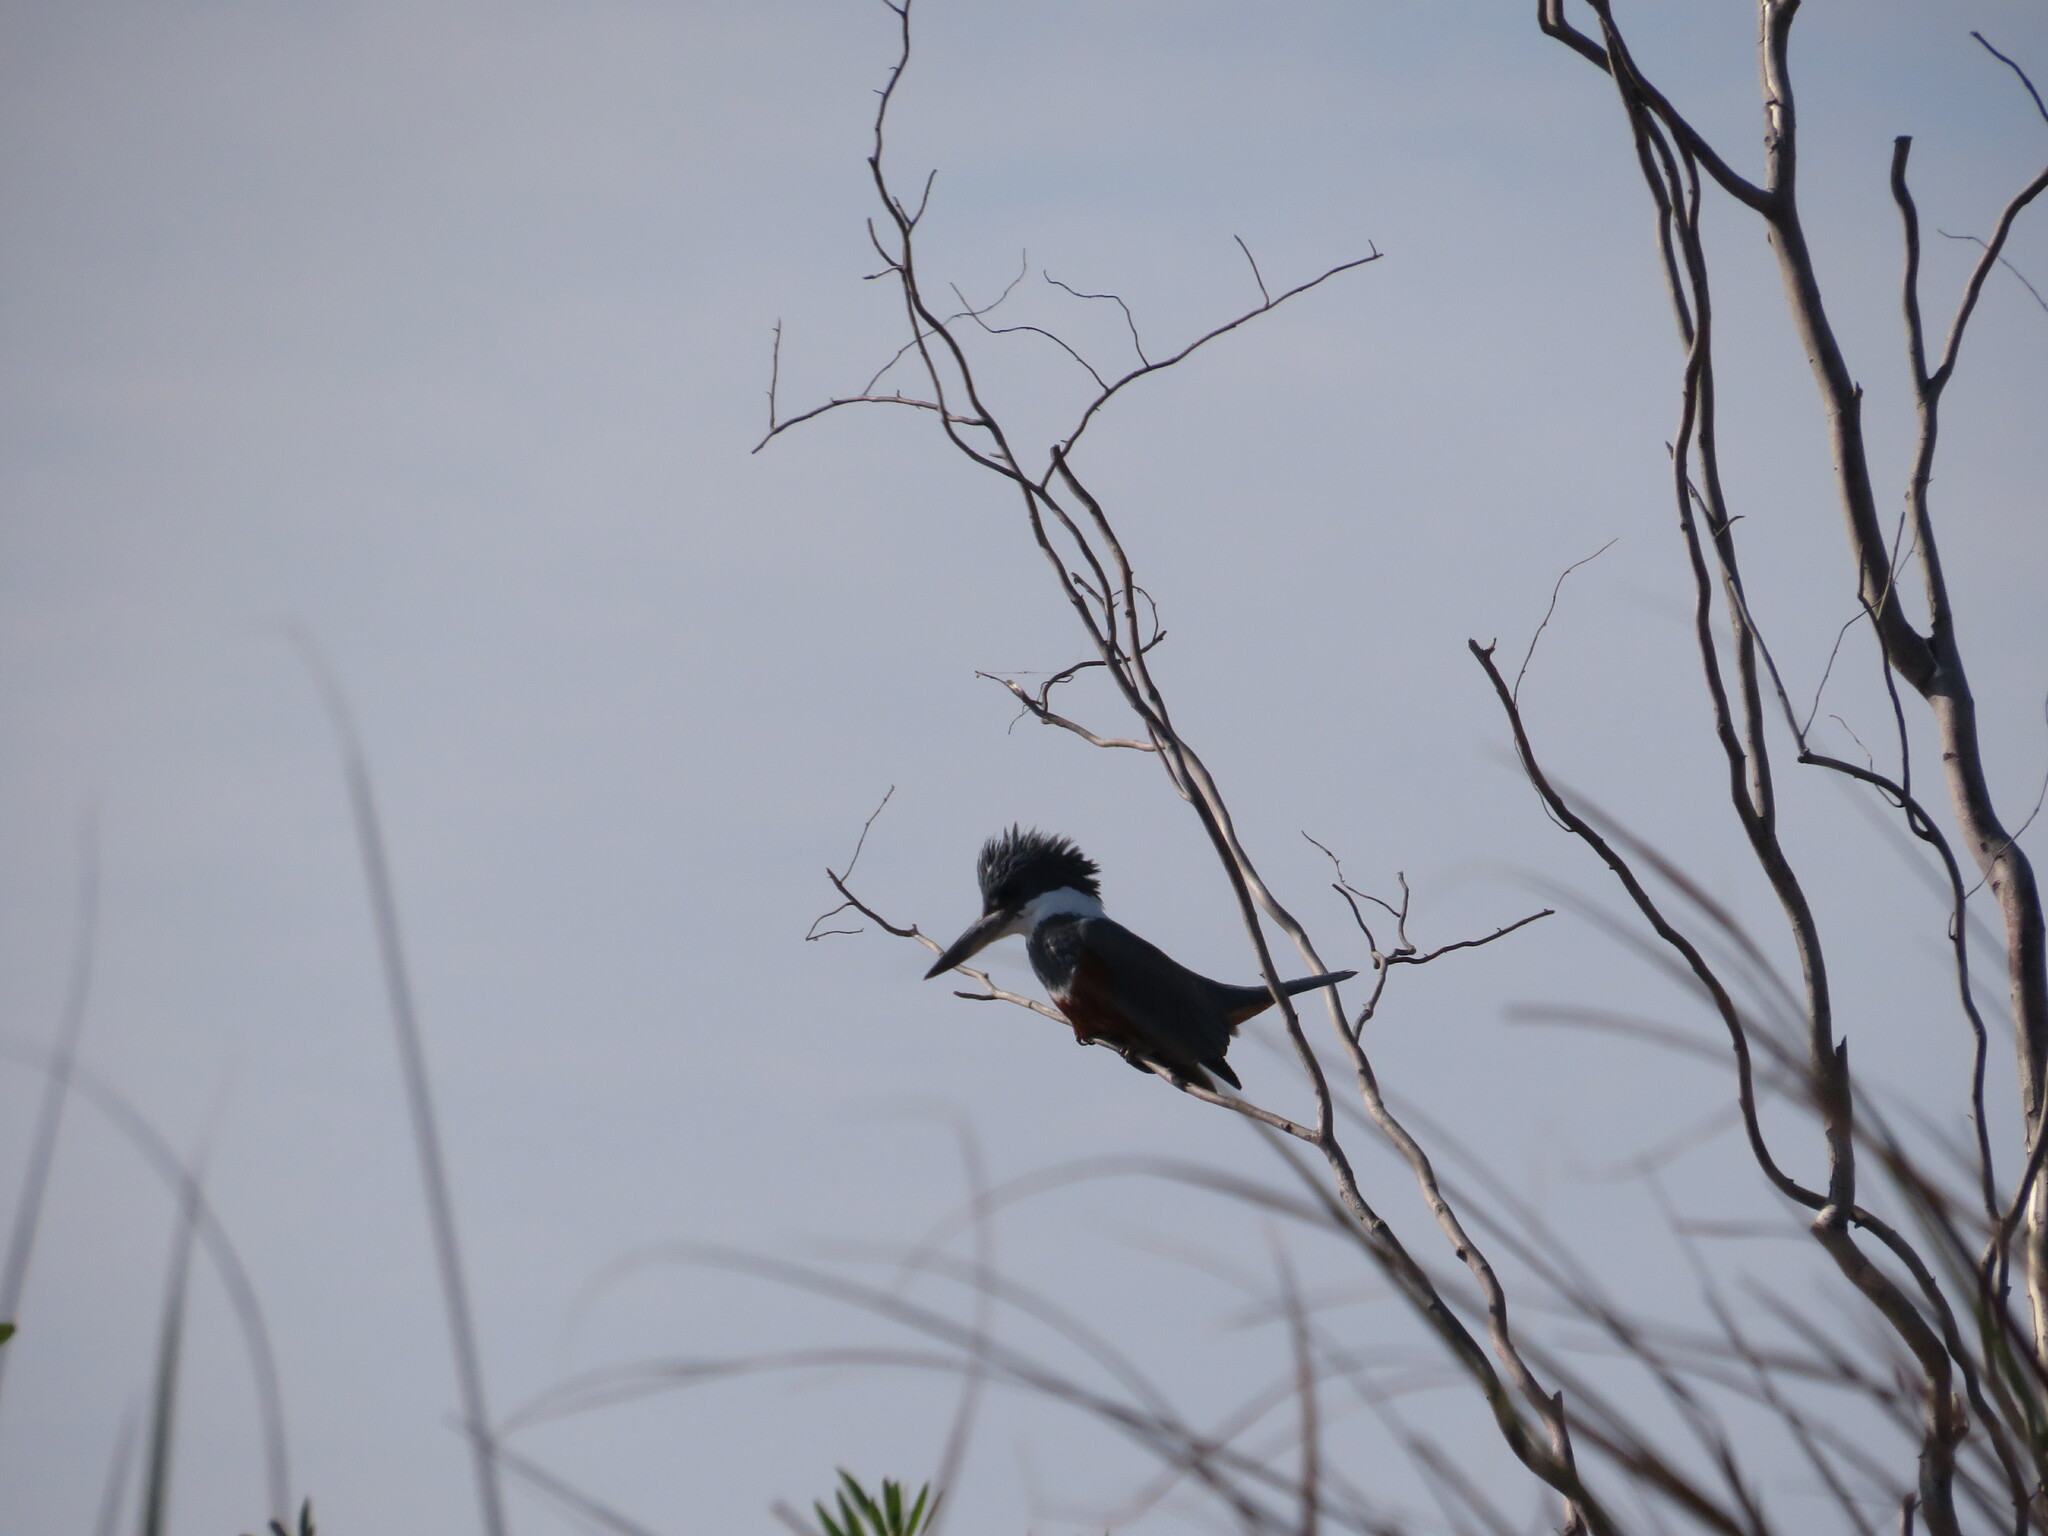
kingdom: Animalia
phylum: Chordata
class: Aves
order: Coraciiformes
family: Alcedinidae
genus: Megaceryle
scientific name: Megaceryle torquata
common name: Ringed kingfisher
